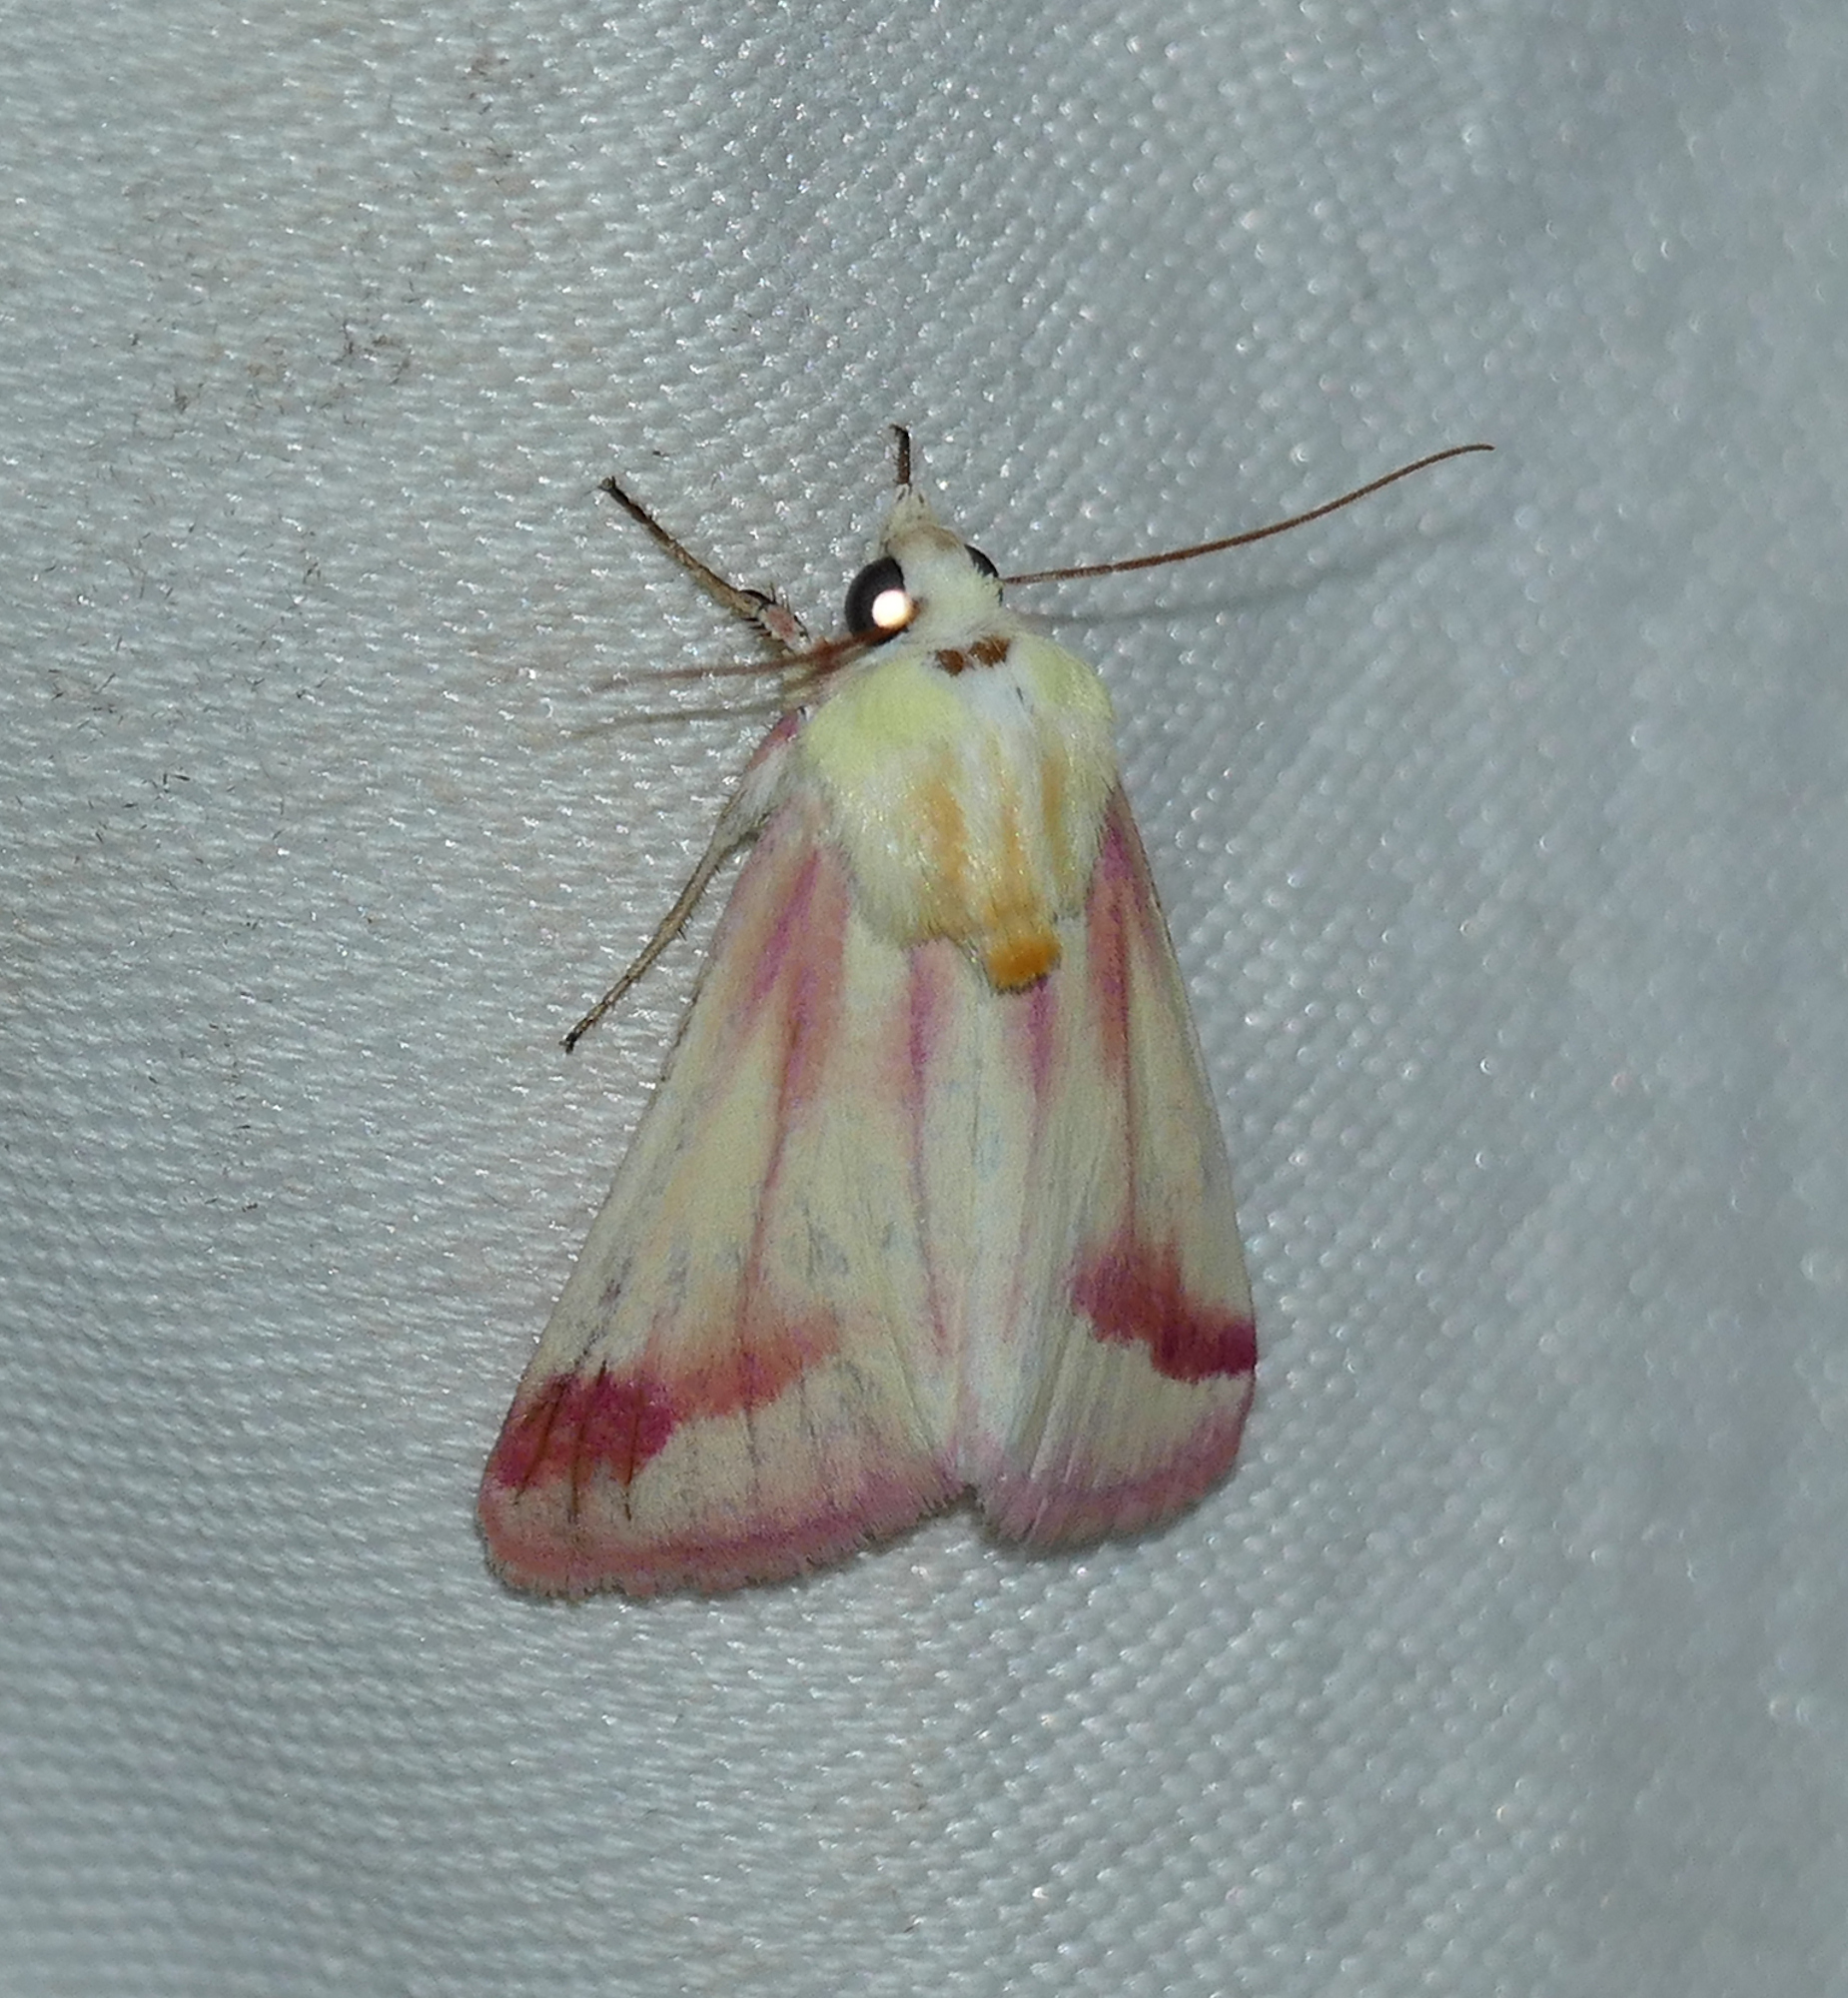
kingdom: Animalia
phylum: Arthropoda
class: Insecta
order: Lepidoptera
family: Noctuidae
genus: Schinia
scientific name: Schinia gaurae
